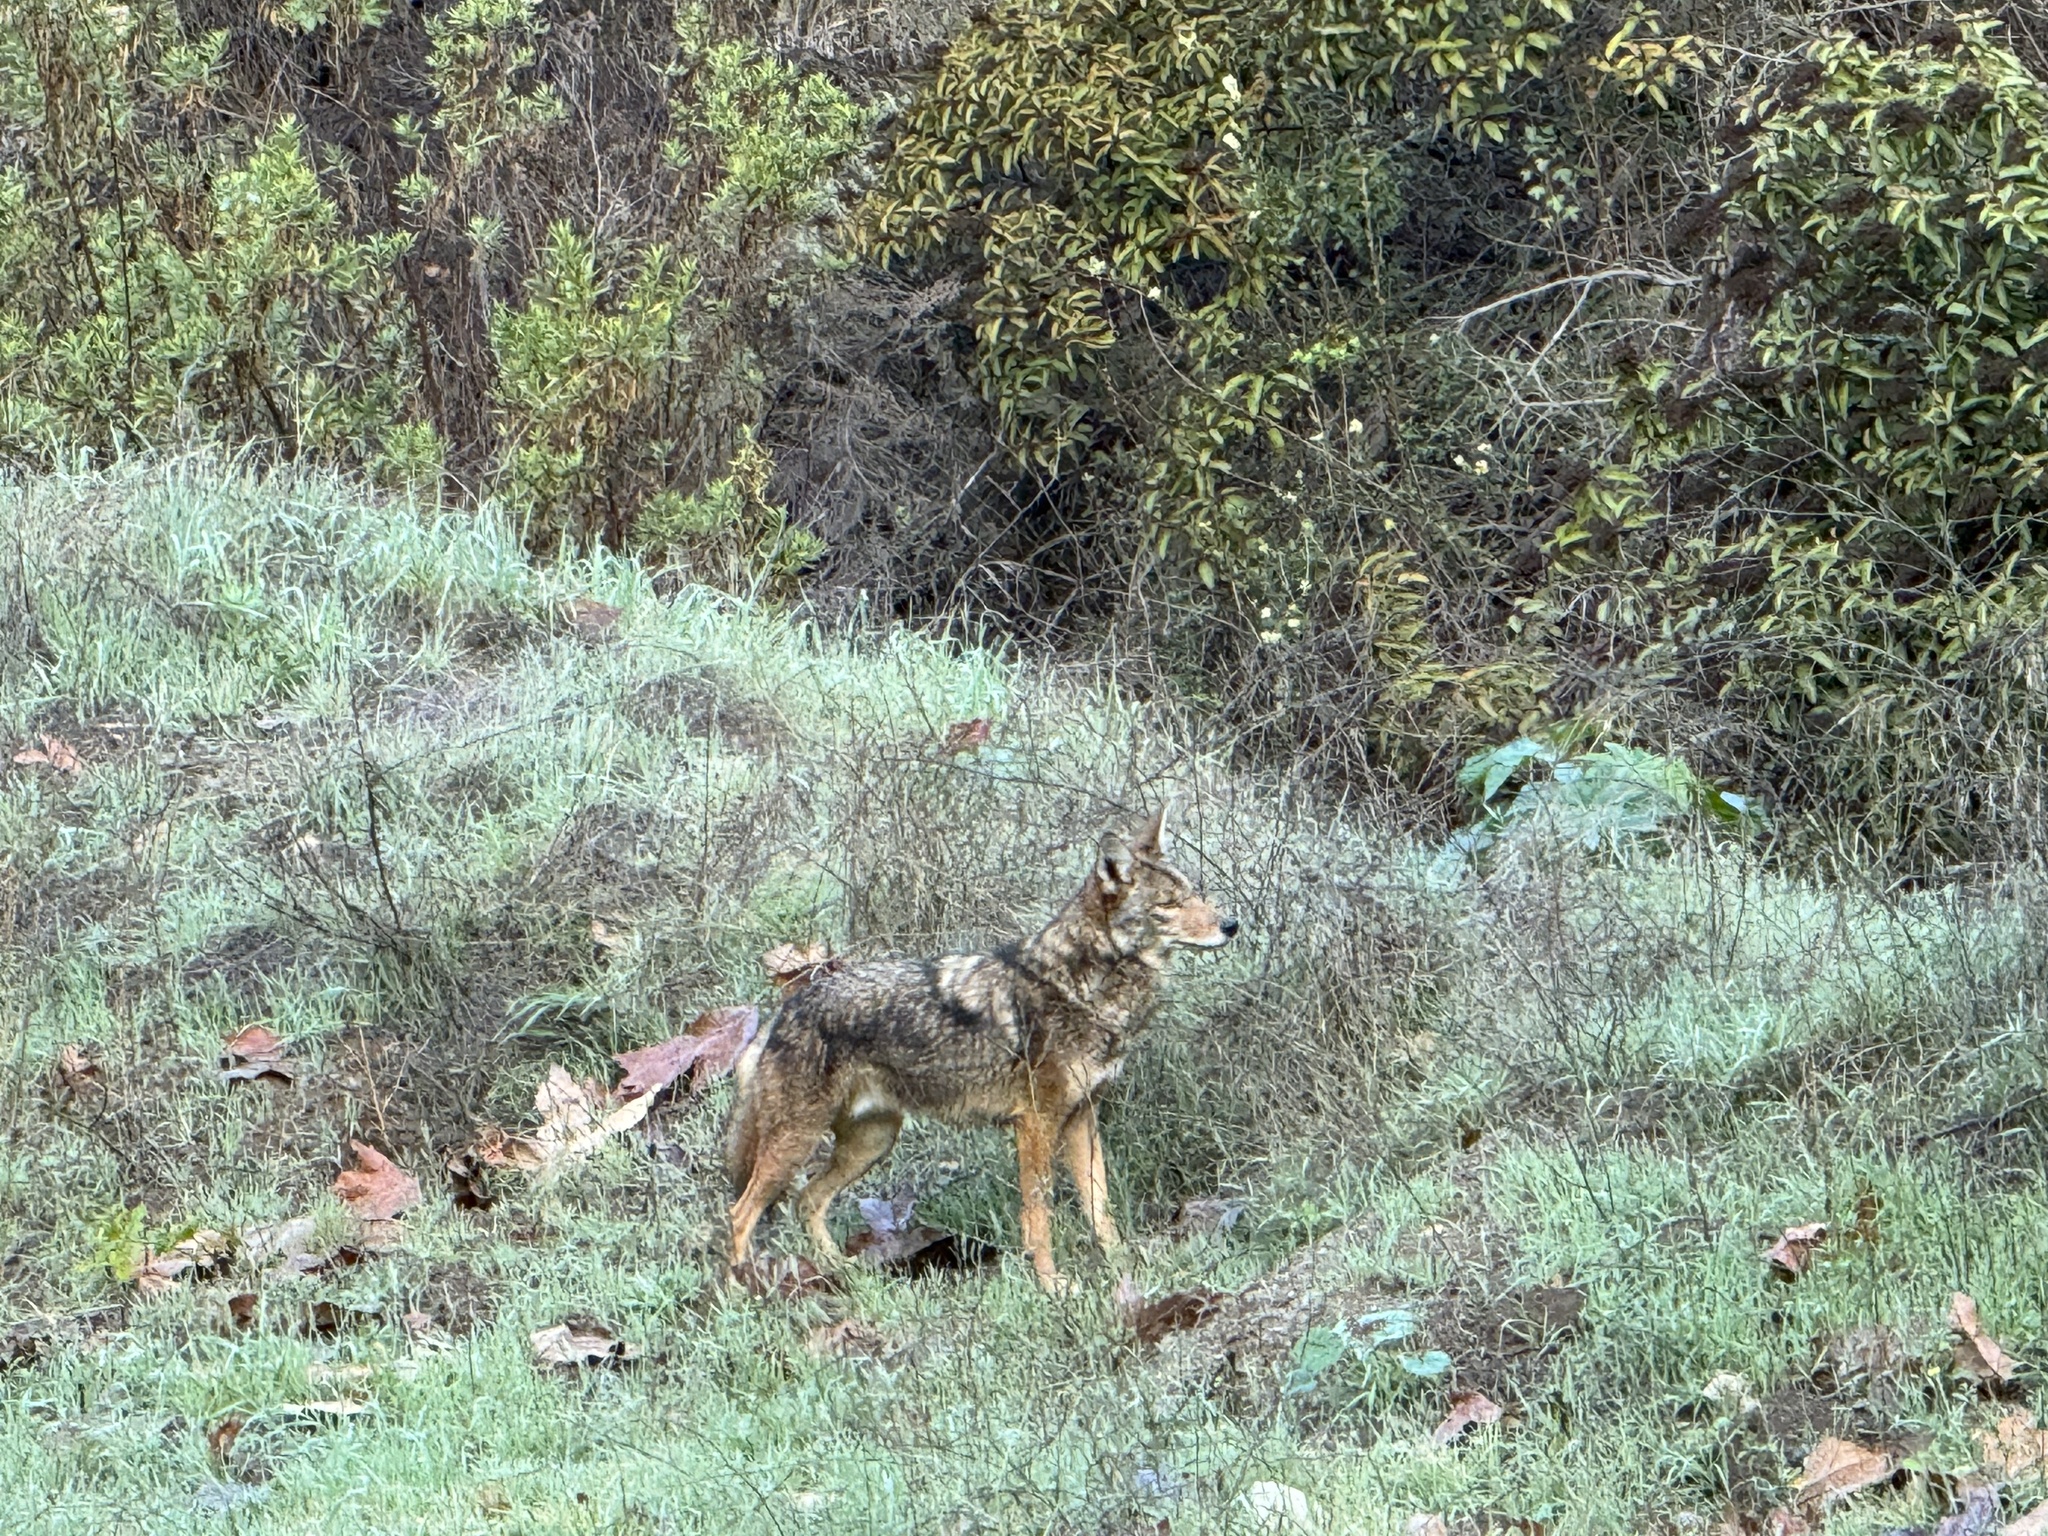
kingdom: Animalia
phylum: Chordata
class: Mammalia
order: Carnivora
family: Canidae
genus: Canis
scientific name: Canis latrans
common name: Coyote
